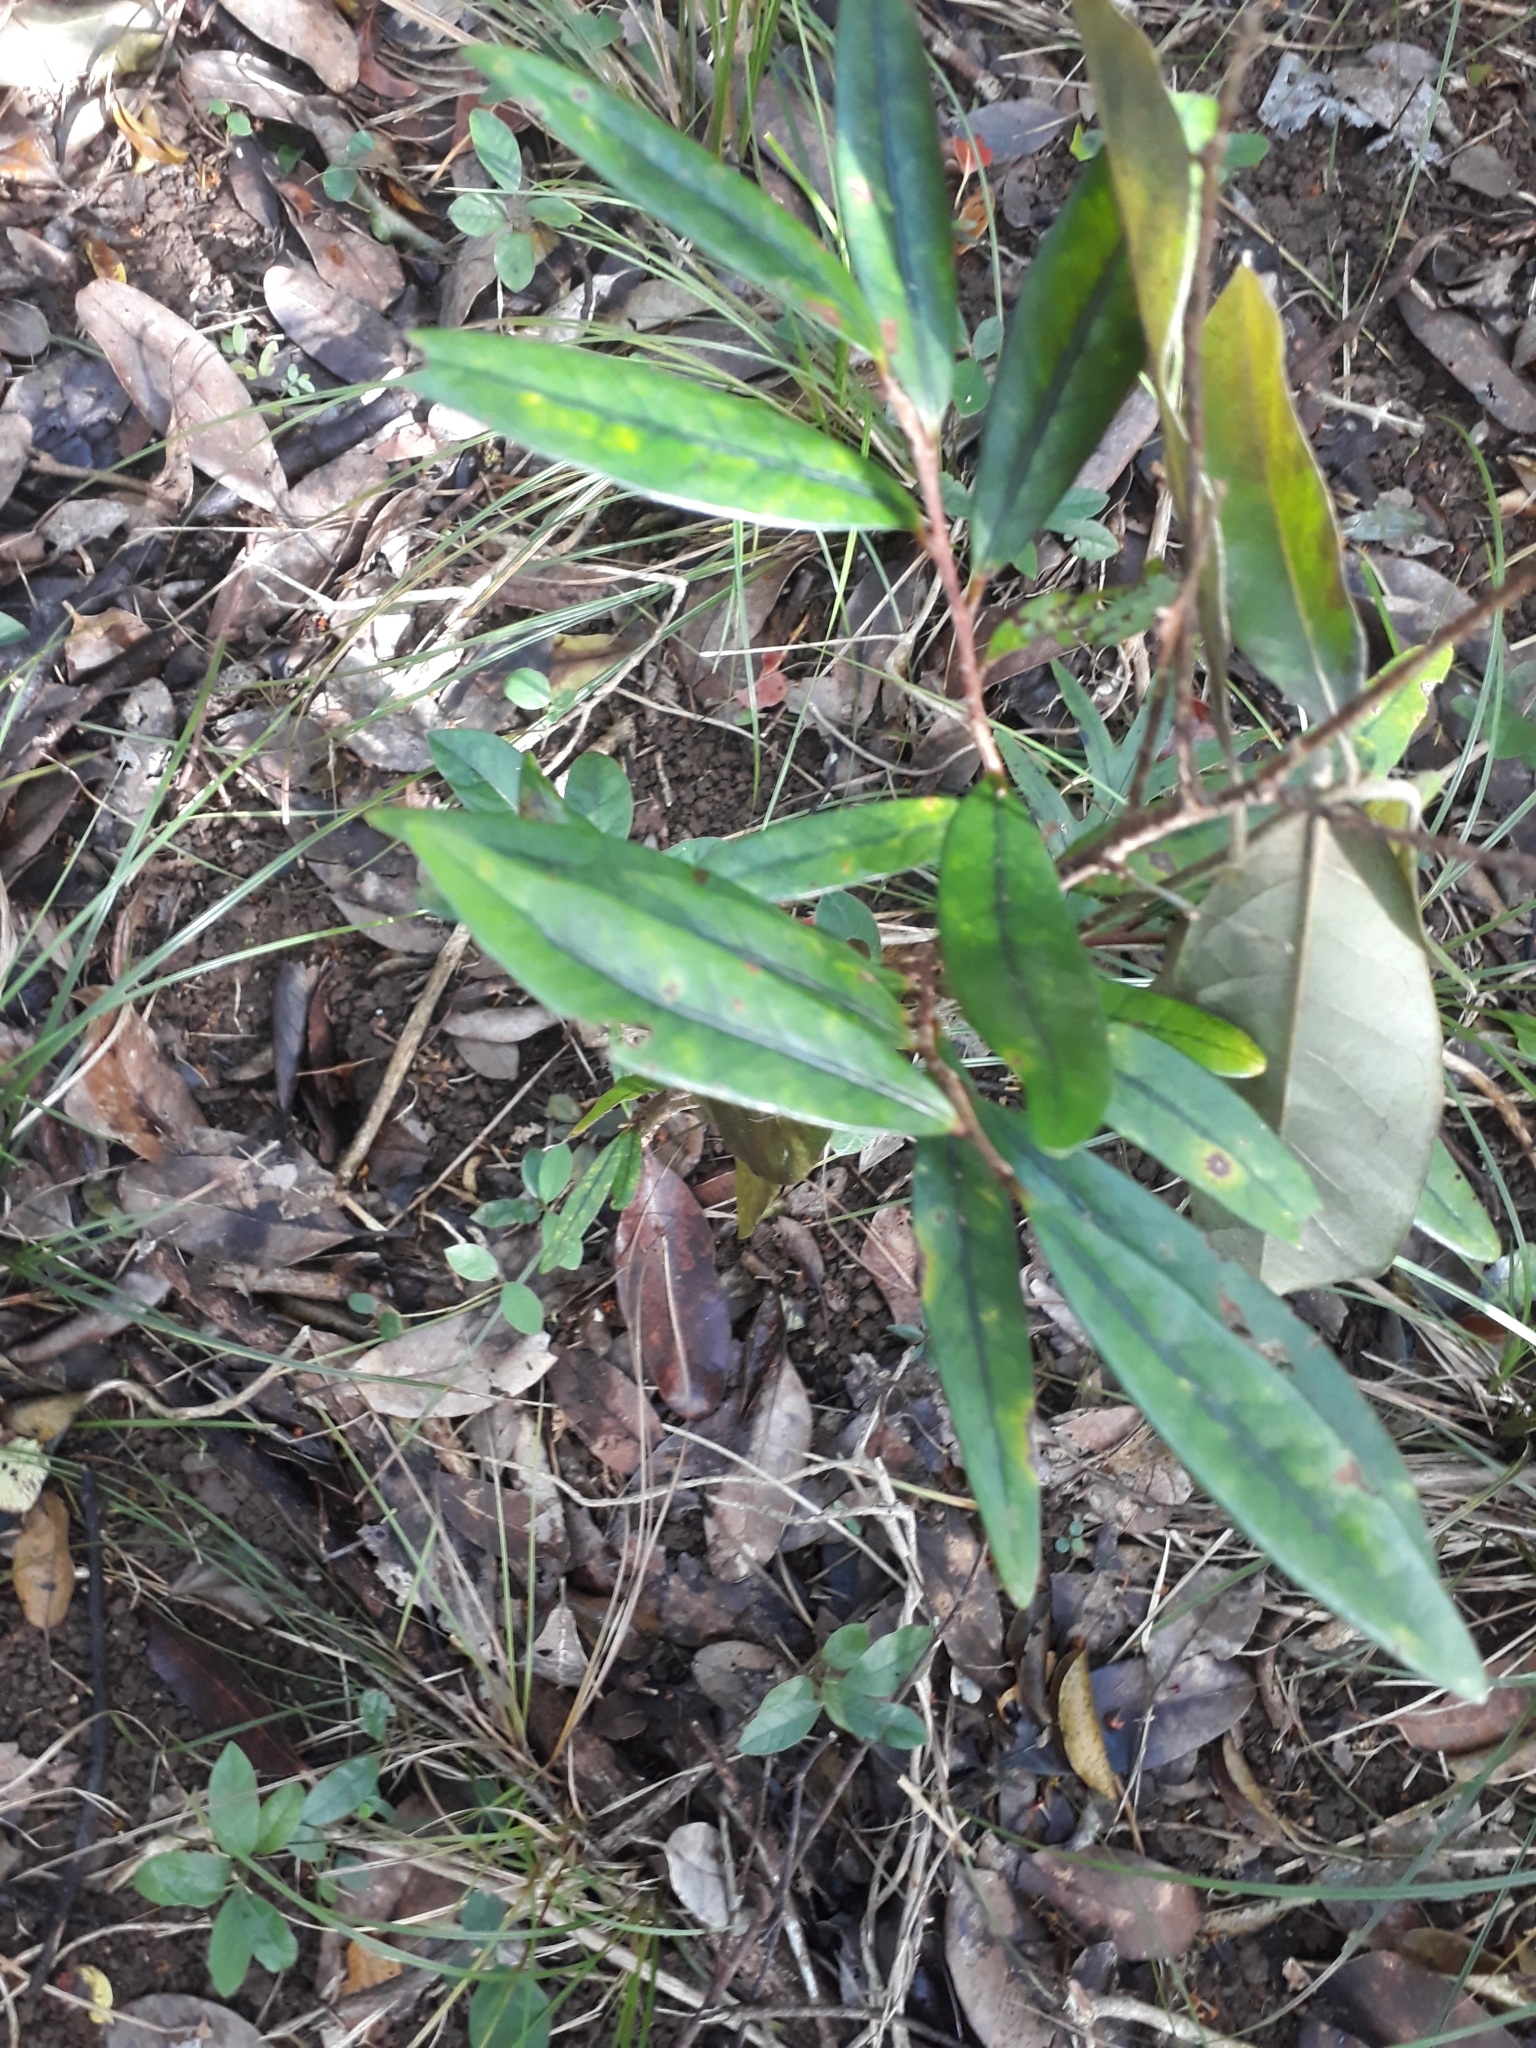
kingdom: Plantae
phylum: Tracheophyta
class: Magnoliopsida
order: Malpighiales
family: Erythroxylaceae
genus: Erythroxylum
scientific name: Erythroxylum sideroxyloides
